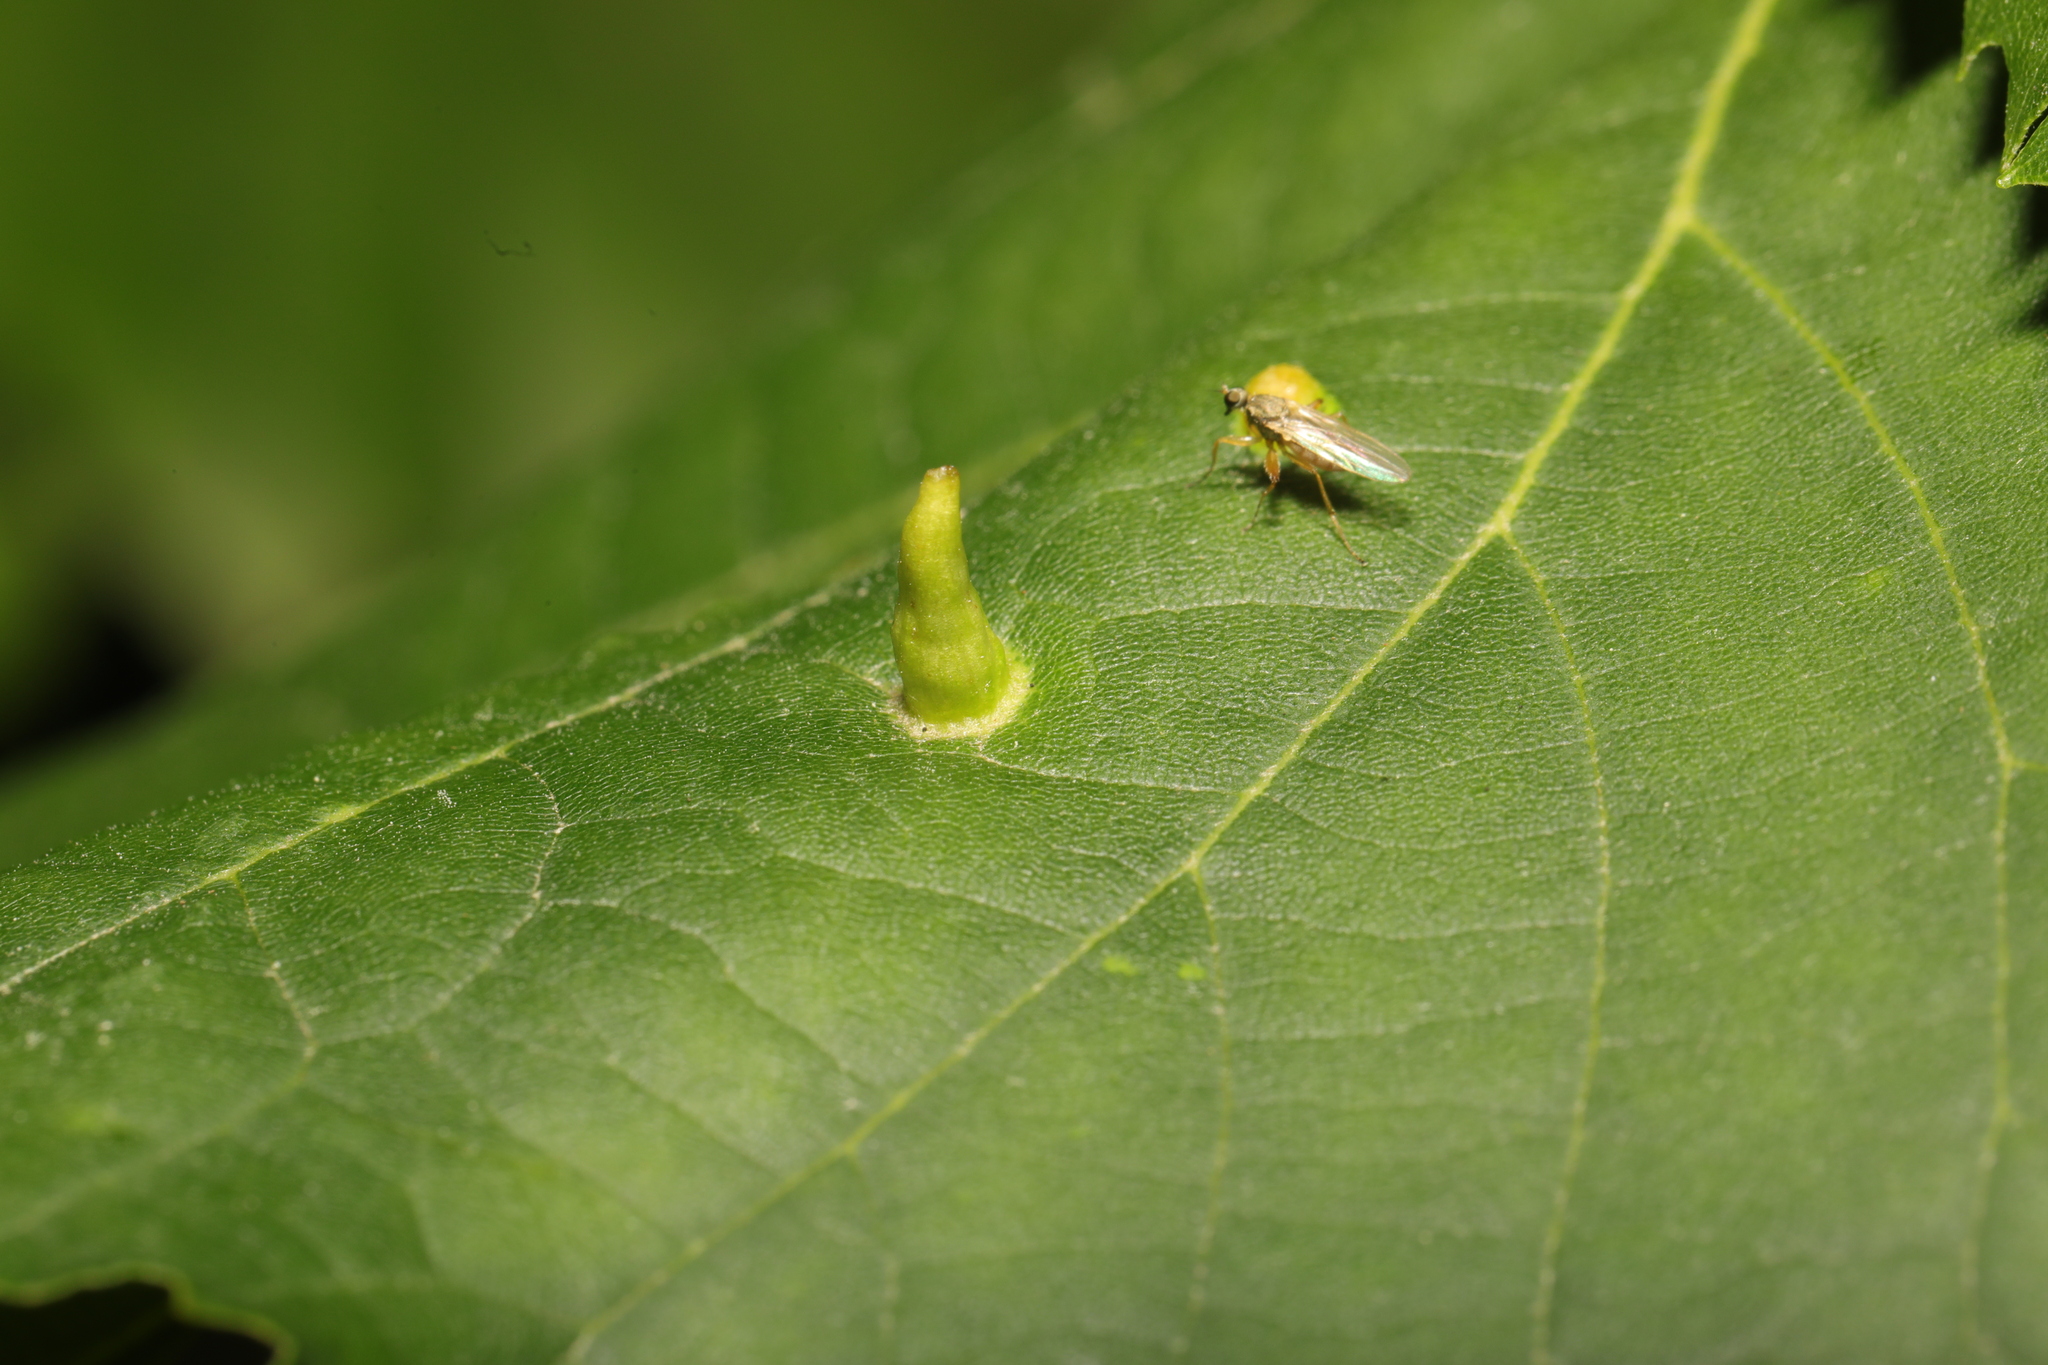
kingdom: Animalia
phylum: Arthropoda
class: Arachnida
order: Trombidiformes
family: Eriophyidae
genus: Eriophyes
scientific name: Eriophyes tiliae
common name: Red nail gall mite
